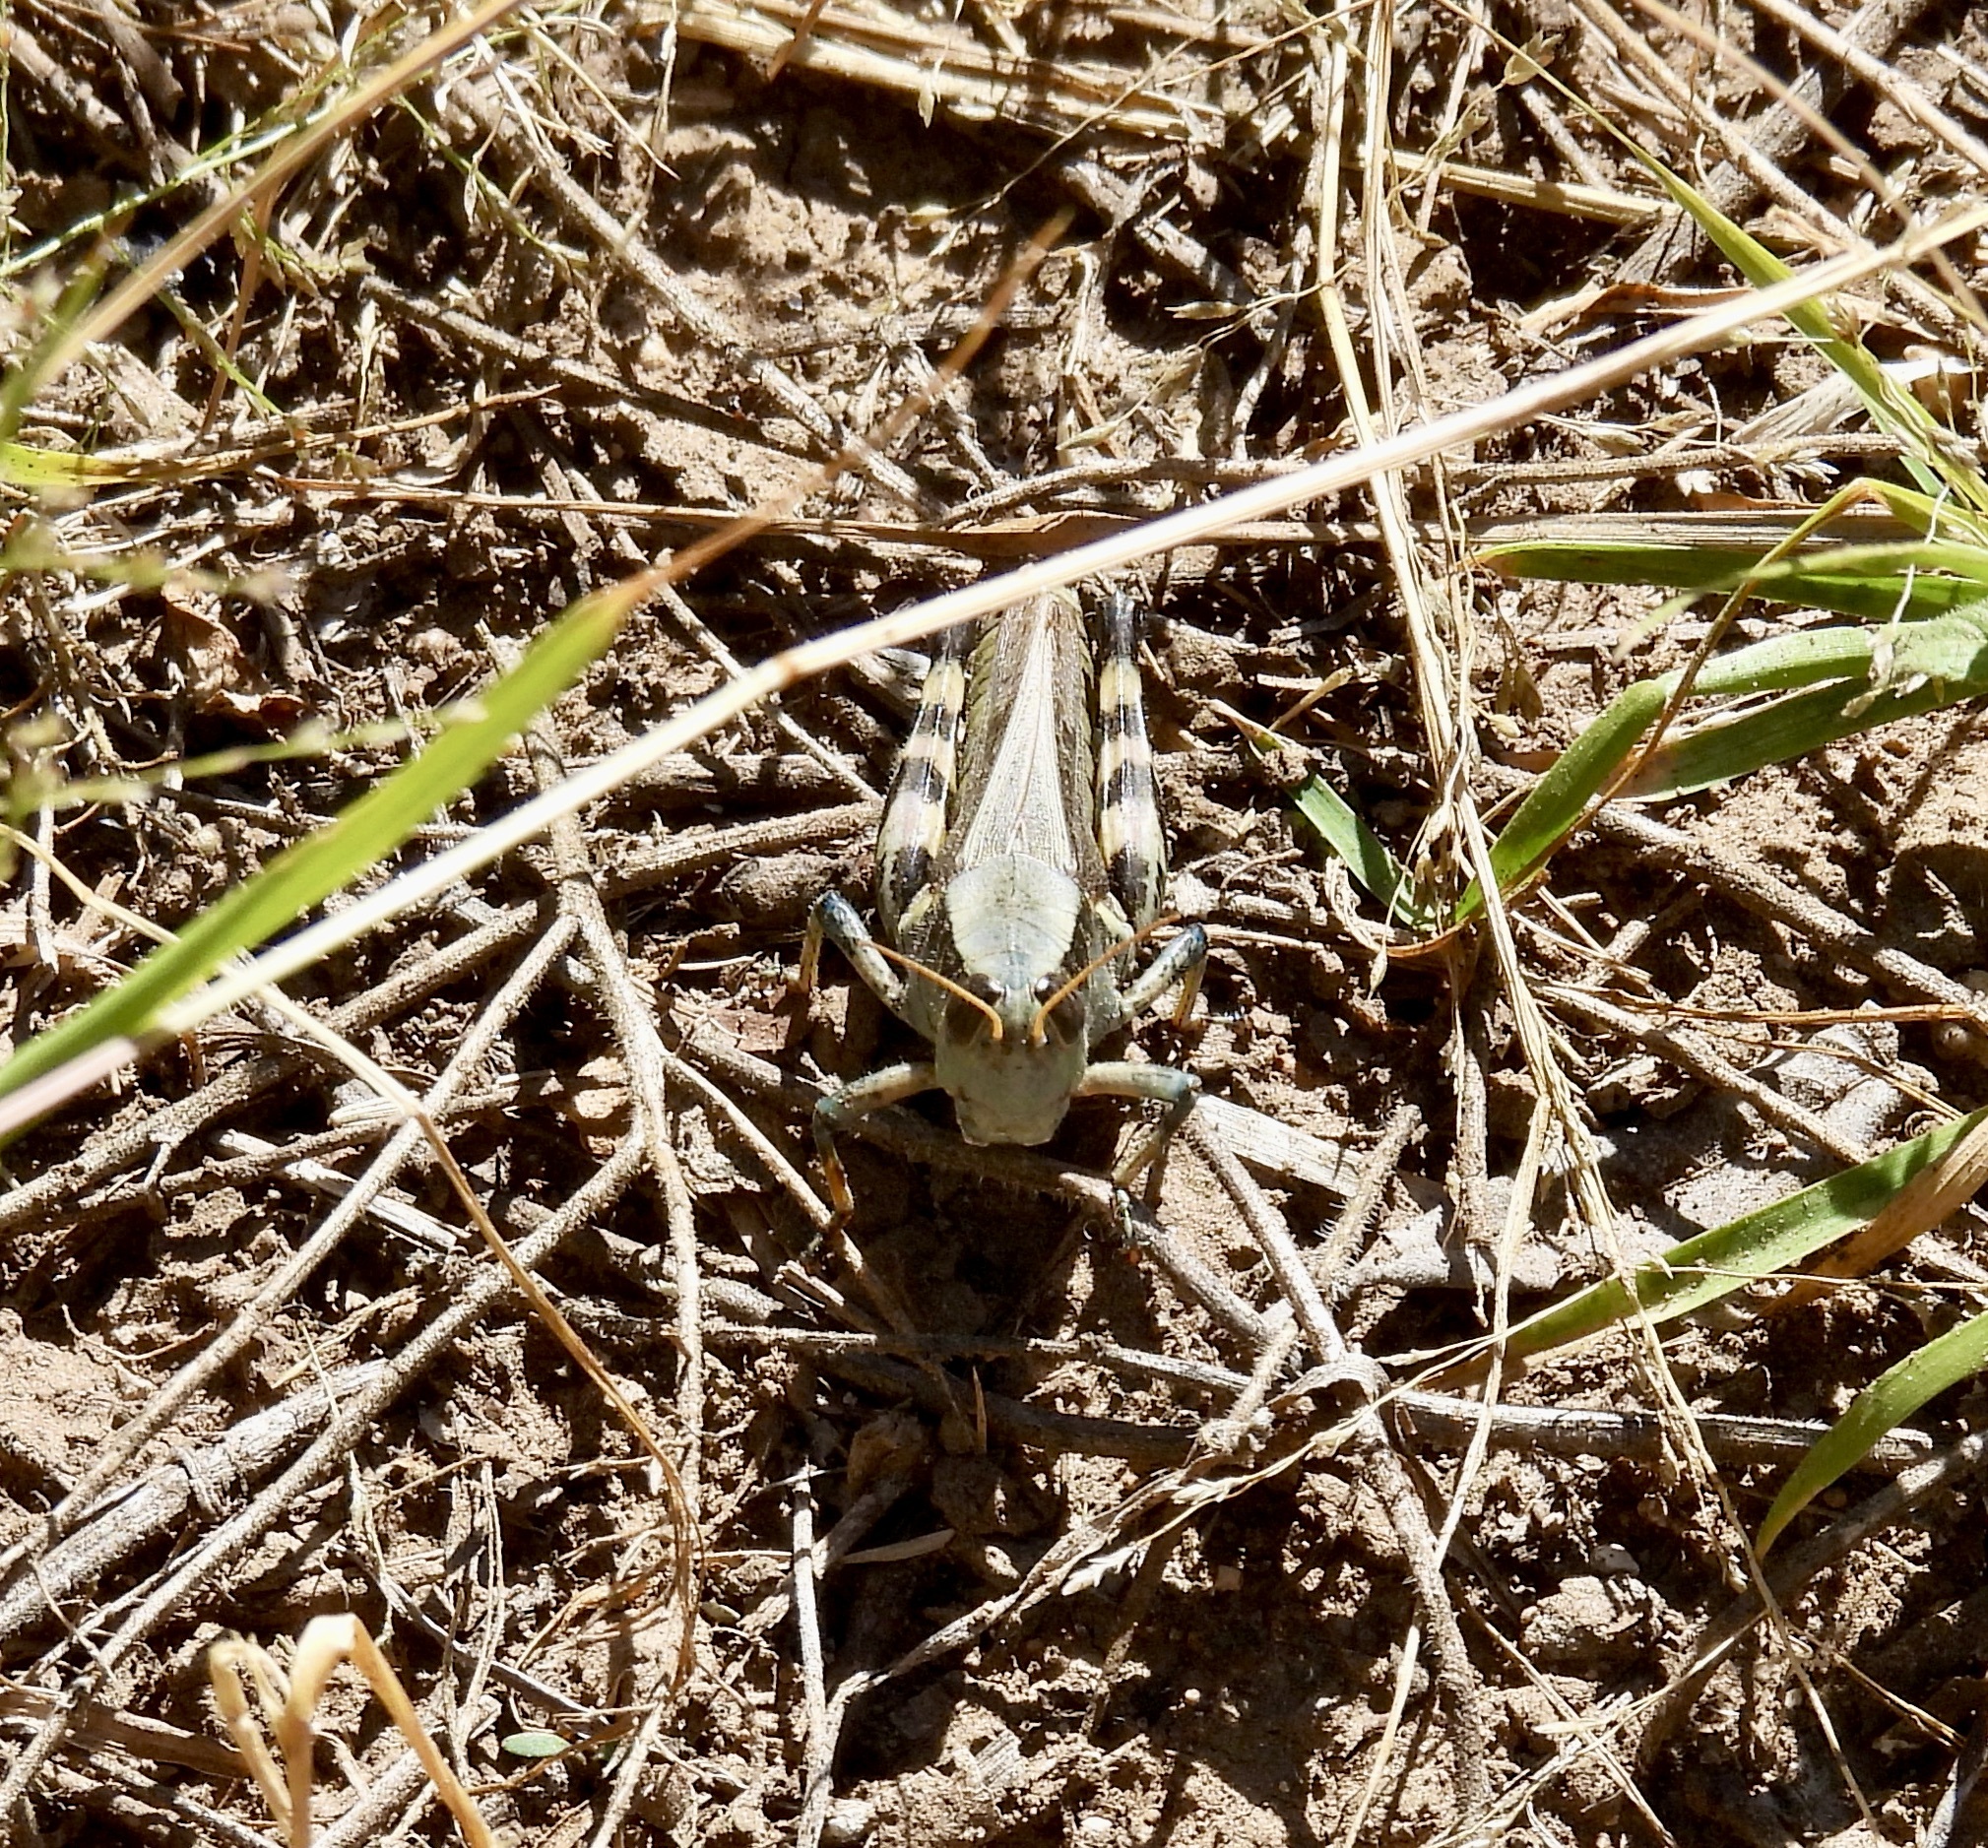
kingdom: Animalia
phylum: Arthropoda
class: Insecta
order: Orthoptera
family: Acrididae
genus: Melanoplus
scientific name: Melanoplus eumera
